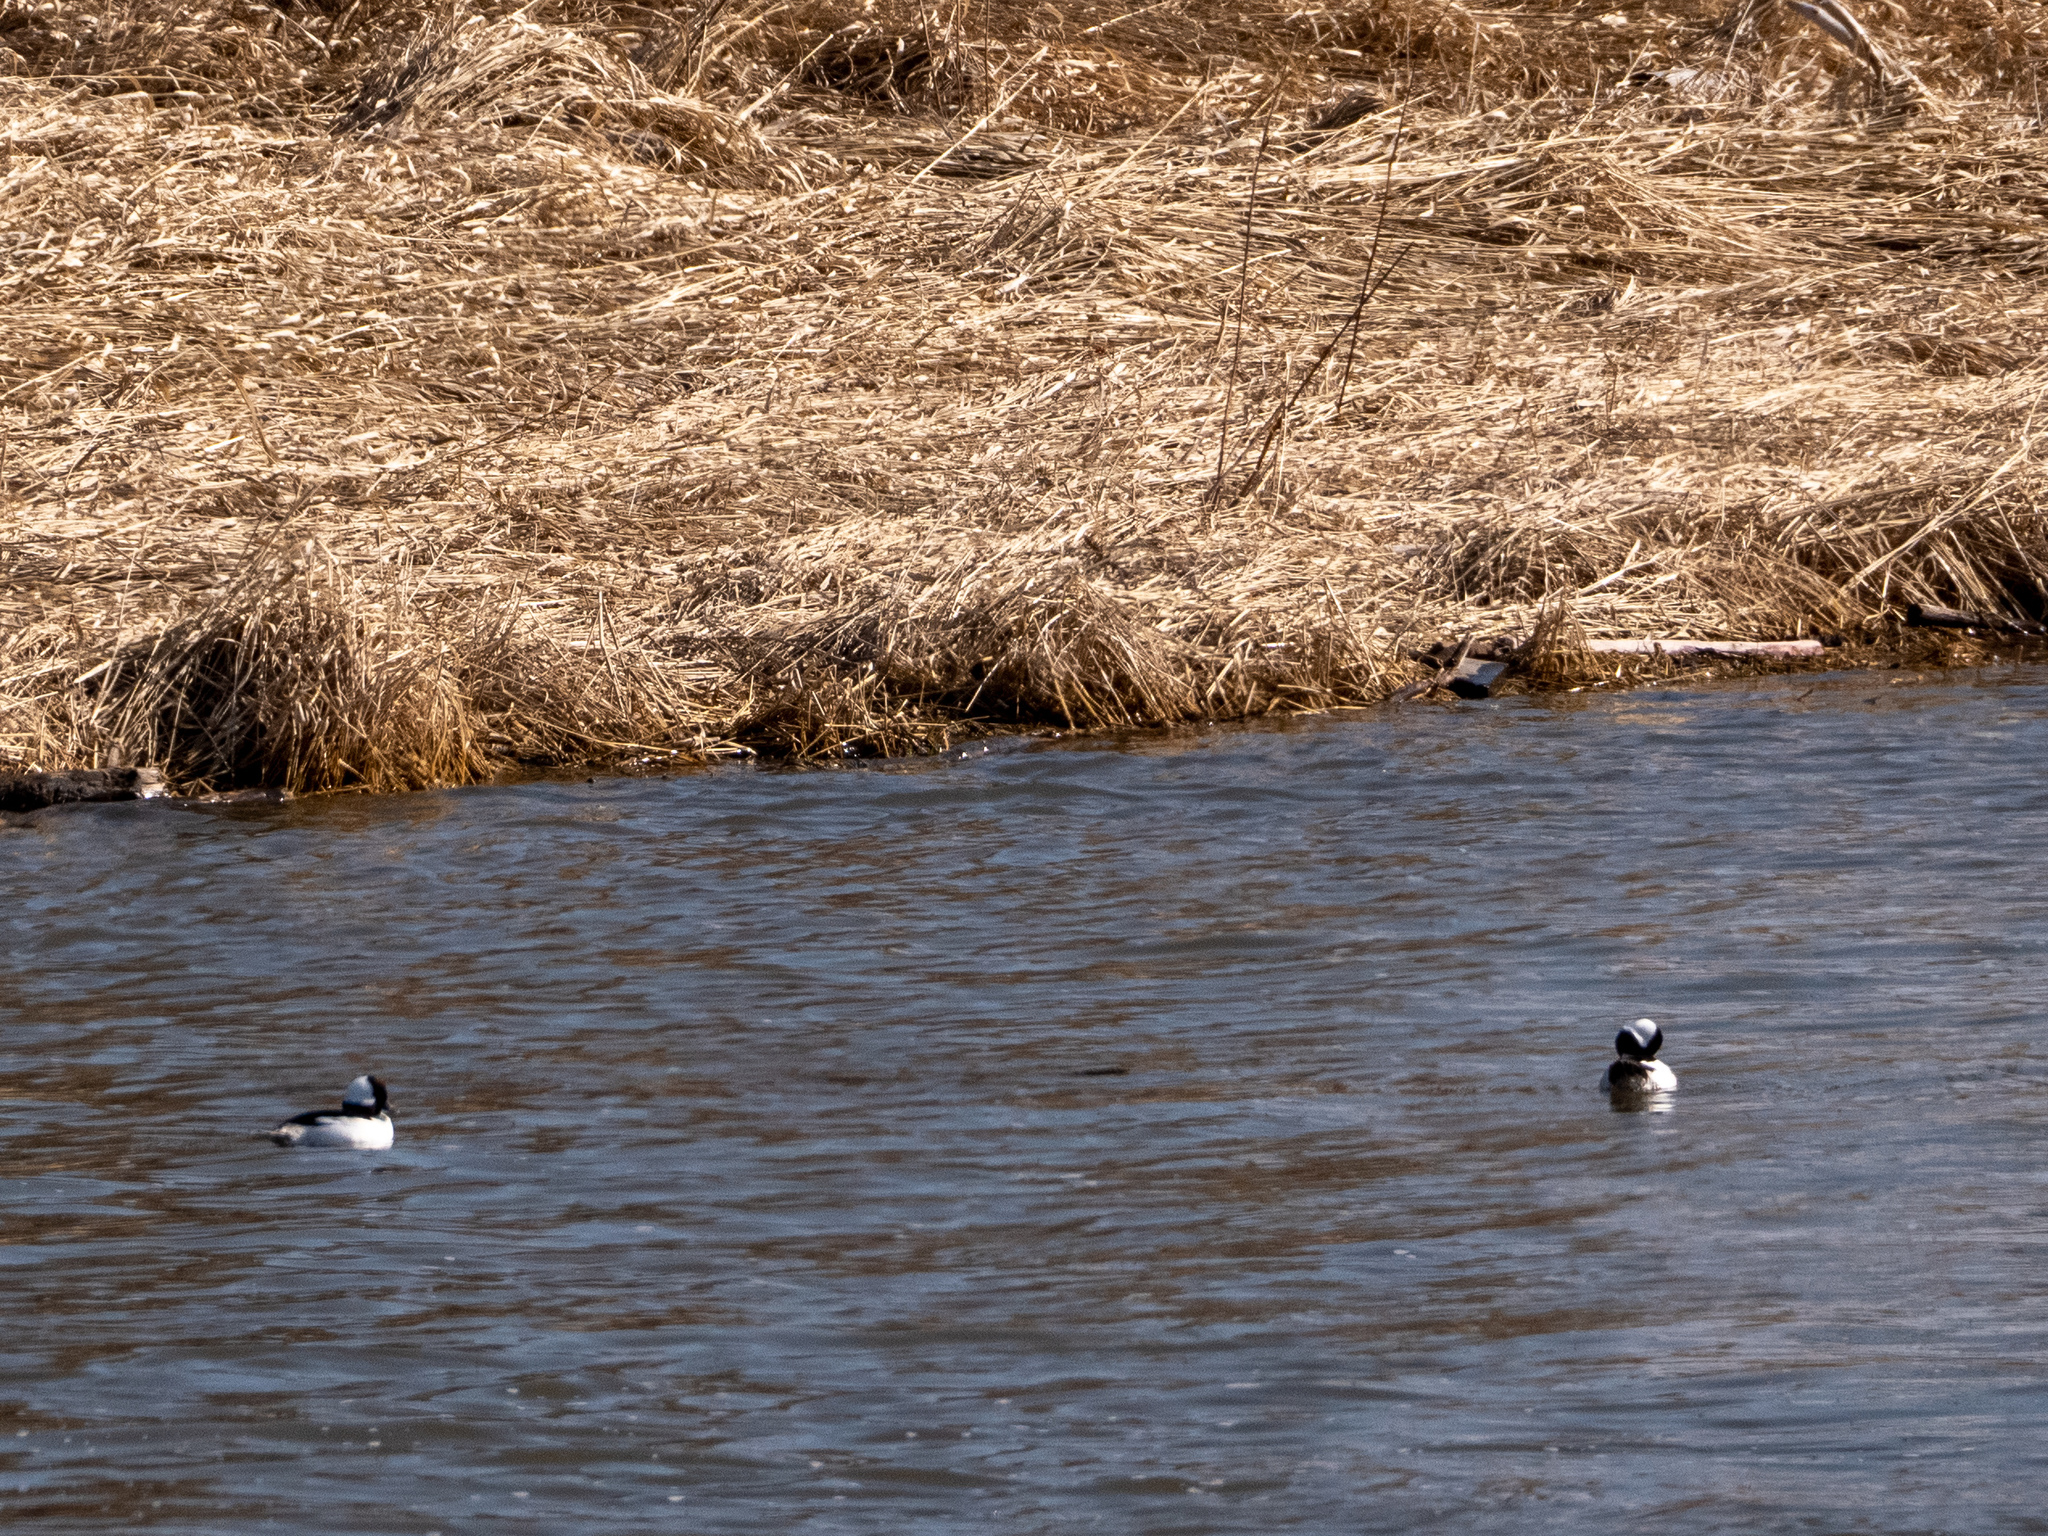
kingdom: Animalia
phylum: Chordata
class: Aves
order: Anseriformes
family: Anatidae
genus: Bucephala
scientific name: Bucephala albeola
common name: Bufflehead
